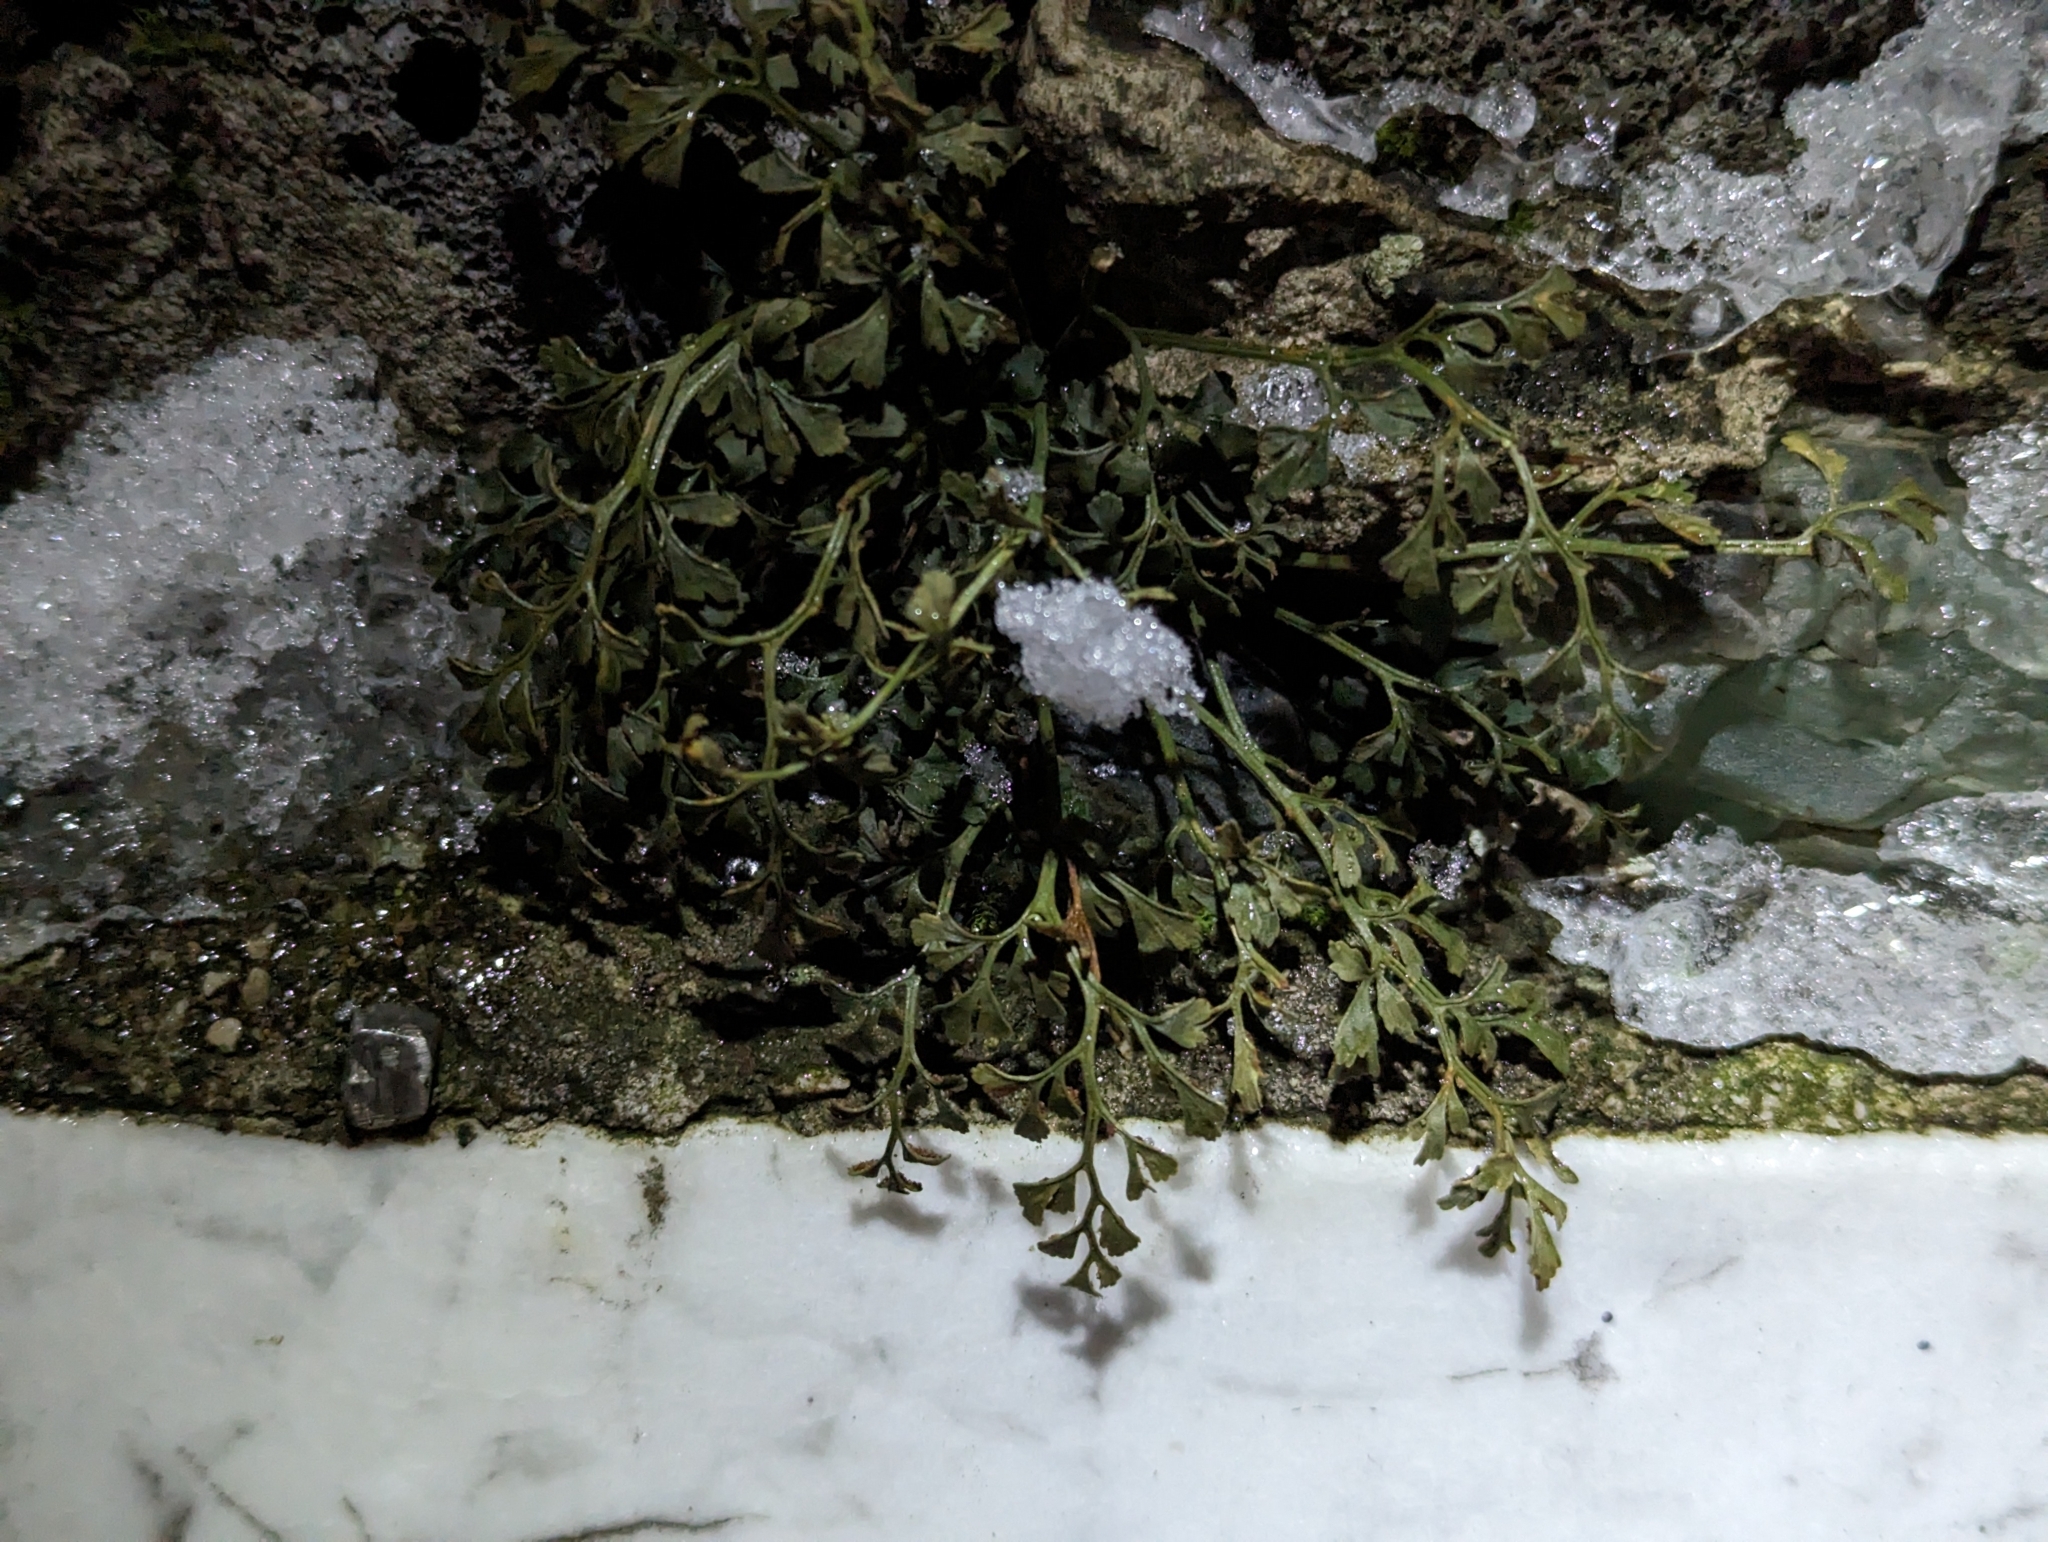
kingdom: Plantae
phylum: Tracheophyta
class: Polypodiopsida
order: Polypodiales
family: Aspleniaceae
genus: Asplenium
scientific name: Asplenium ruta-muraria
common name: Wall-rue
